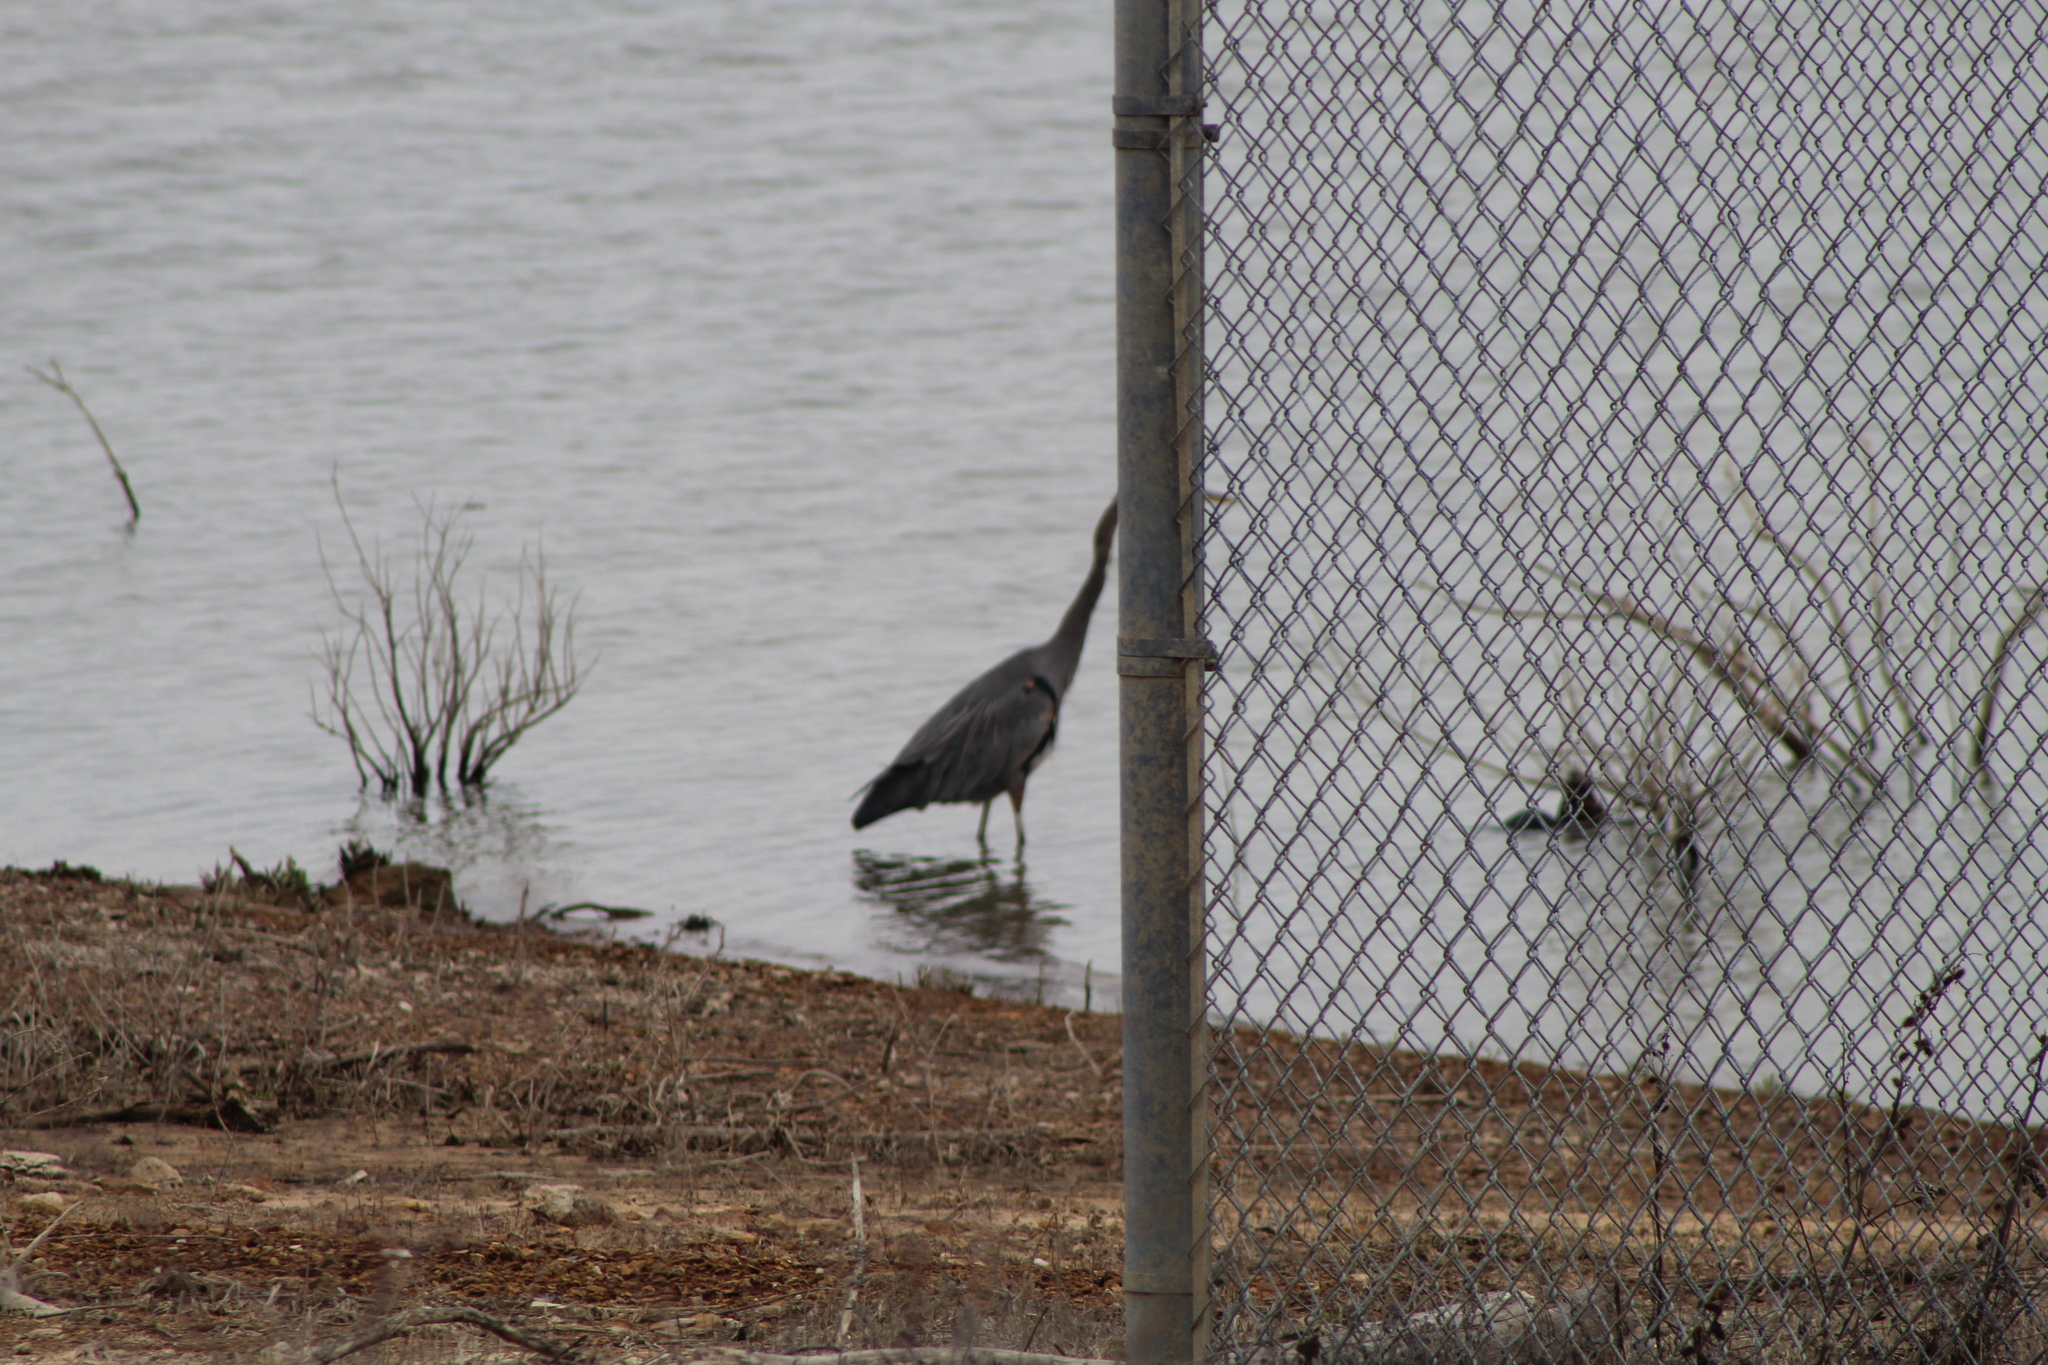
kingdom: Animalia
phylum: Chordata
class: Aves
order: Pelecaniformes
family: Ardeidae
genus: Ardea
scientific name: Ardea herodias
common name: Great blue heron
